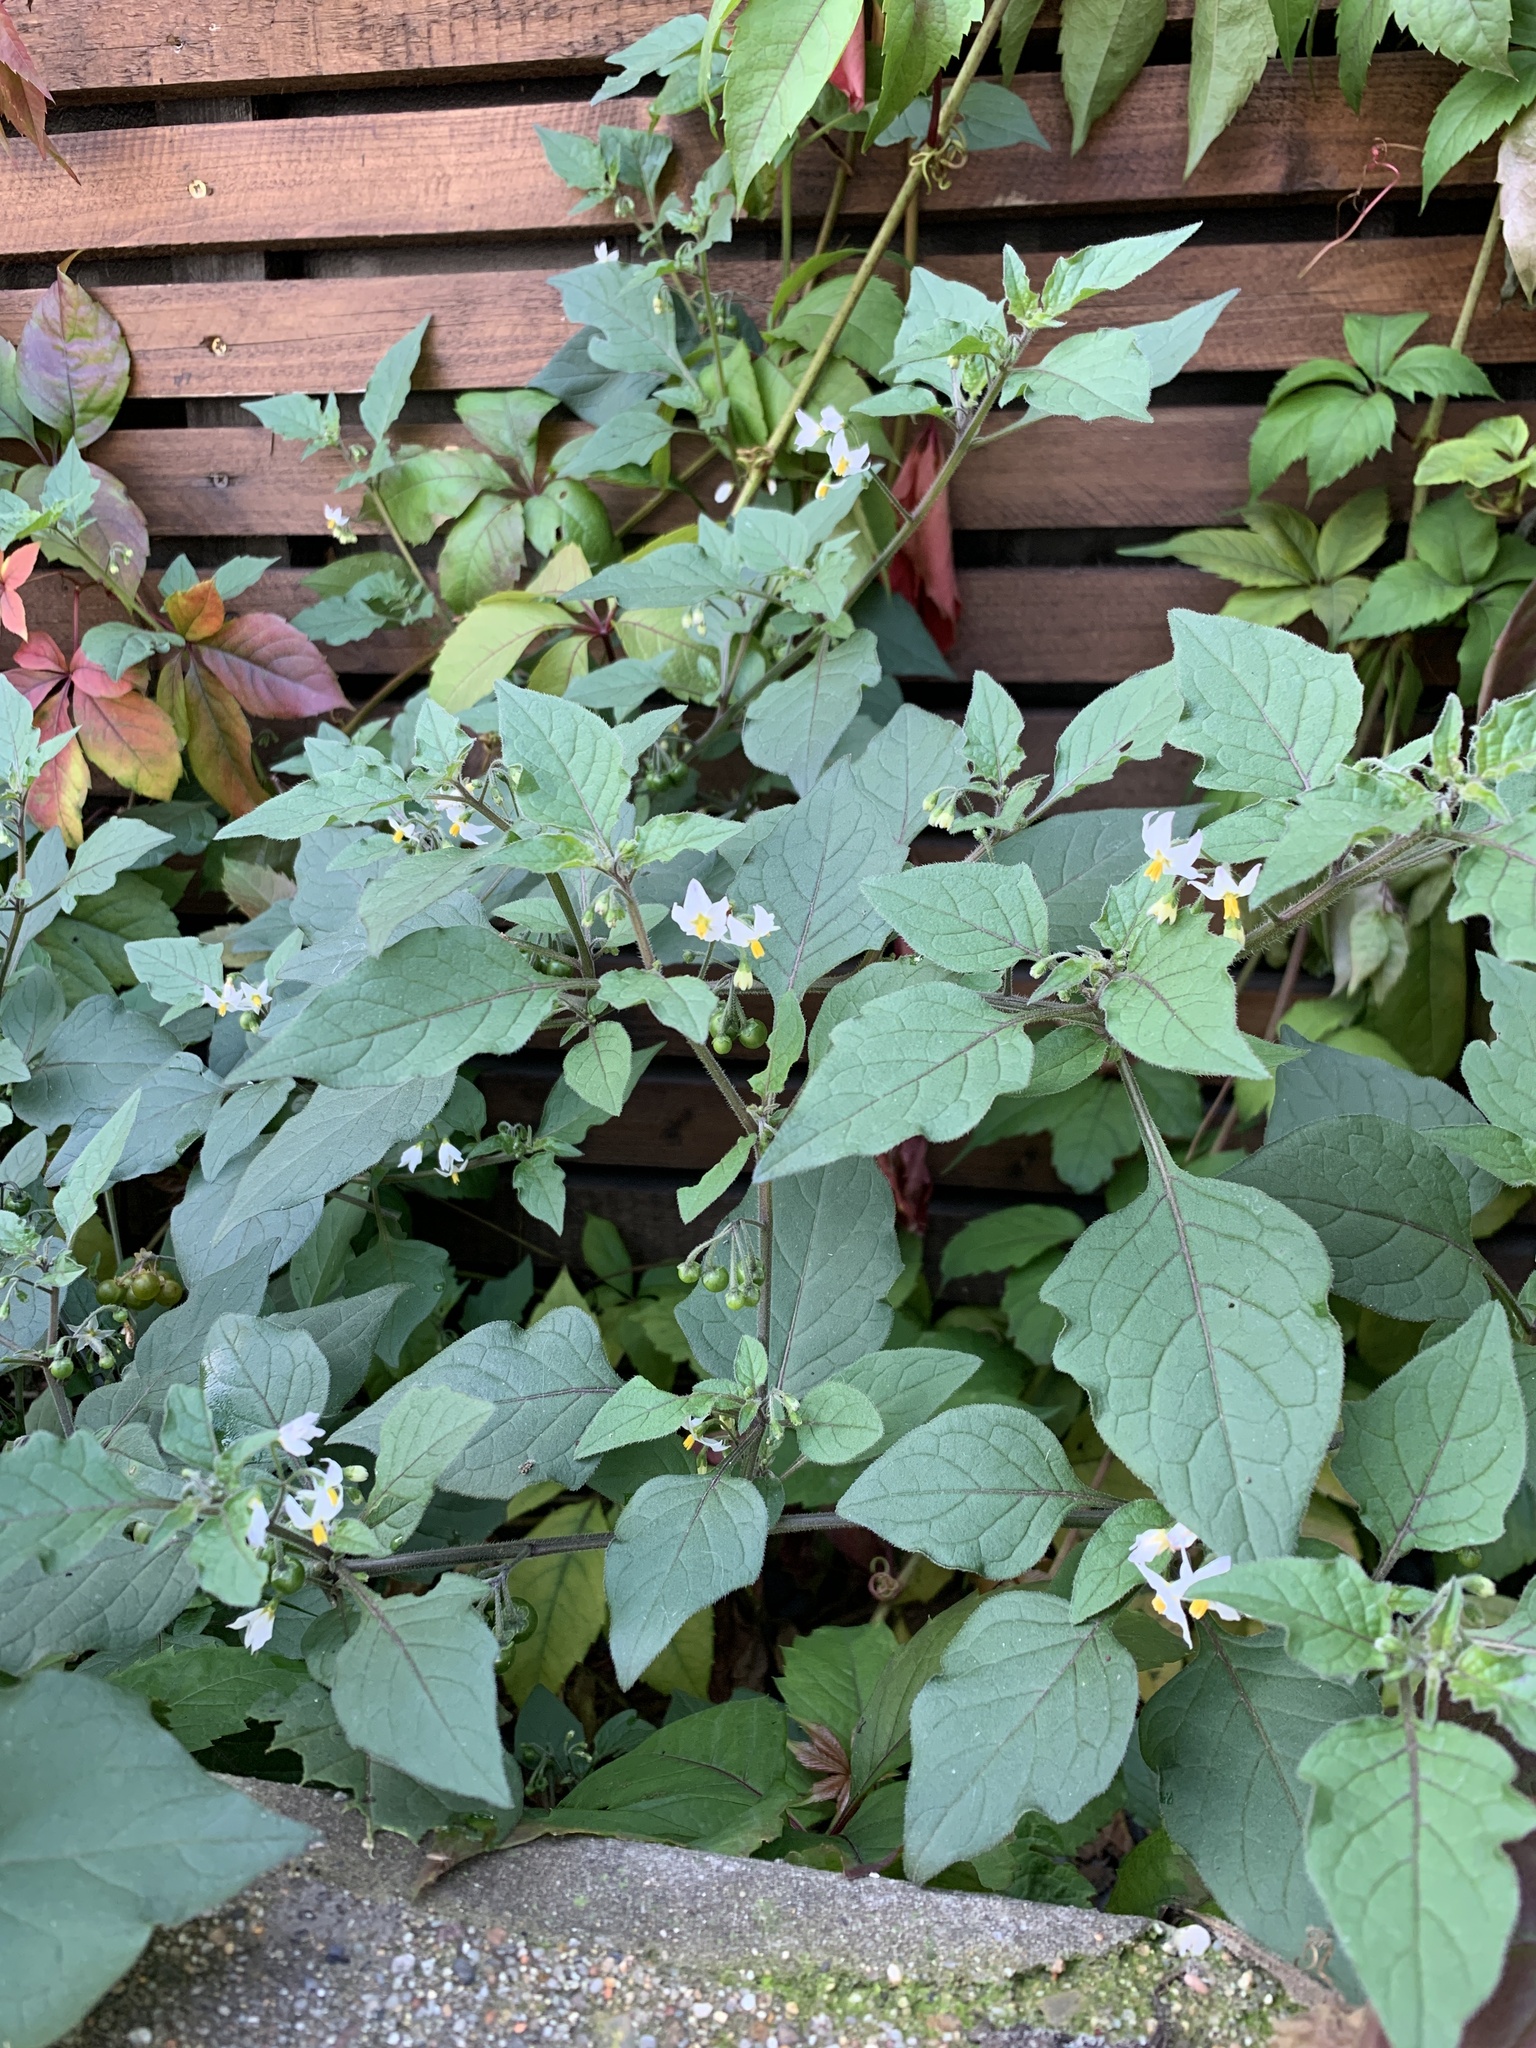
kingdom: Plantae
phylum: Tracheophyta
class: Magnoliopsida
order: Solanales
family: Solanaceae
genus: Solanum
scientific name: Solanum nigrum
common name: Black nightshade
